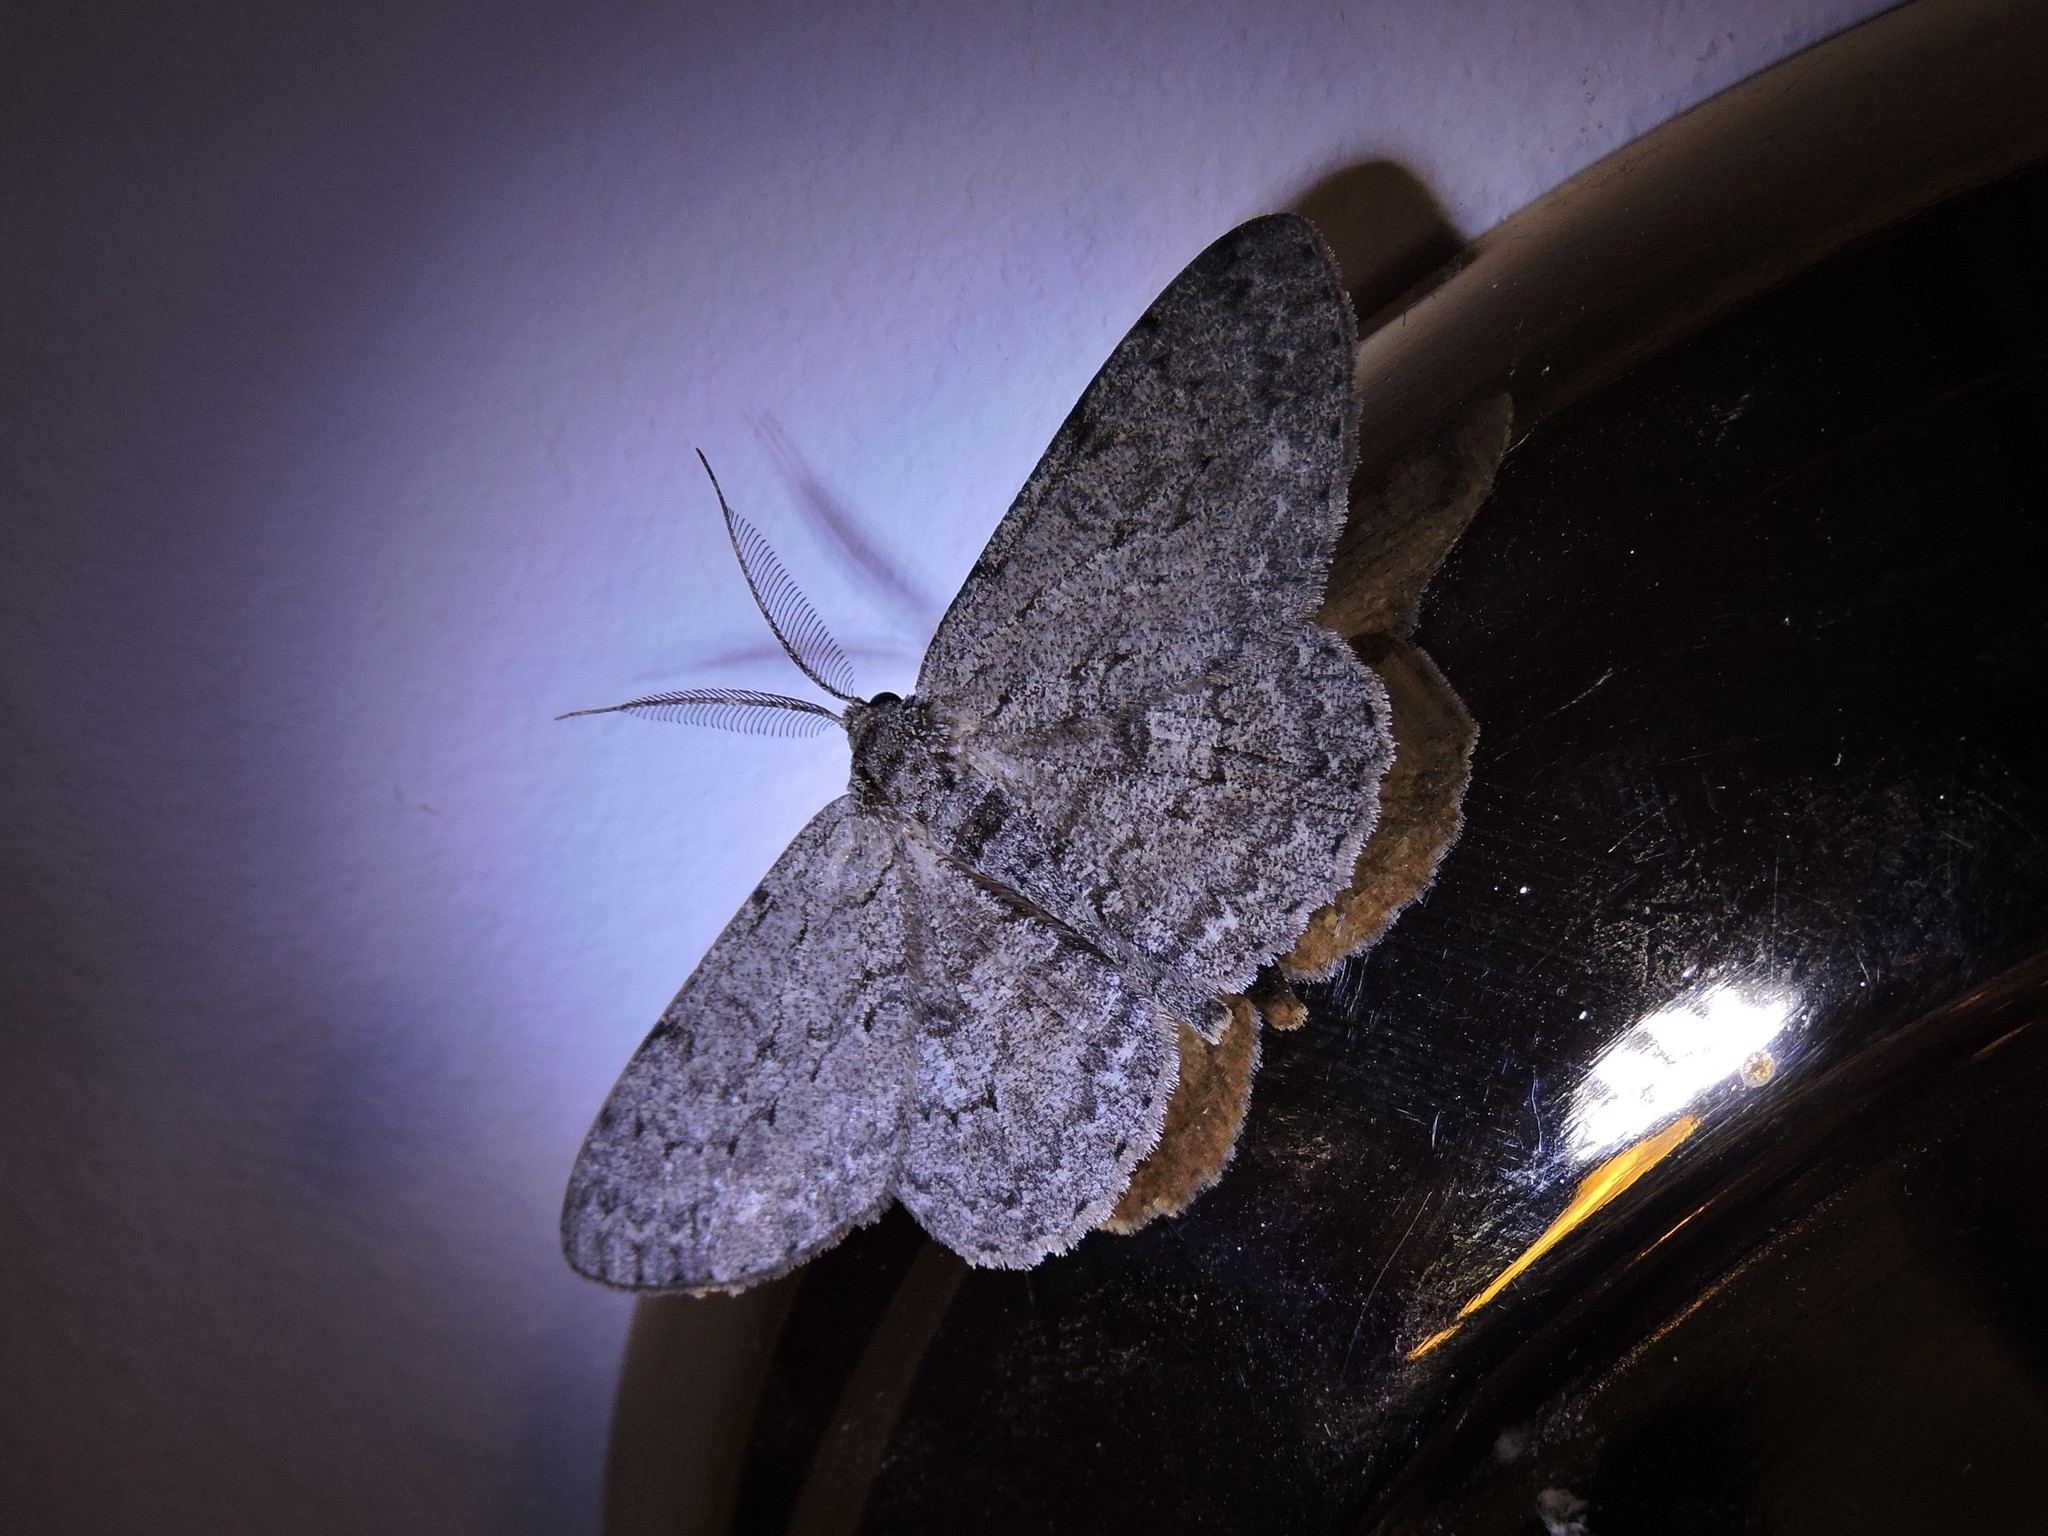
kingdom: Animalia
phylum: Arthropoda
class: Insecta
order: Lepidoptera
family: Geometridae
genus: Hypomecis
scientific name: Hypomecis punctinalis
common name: Pale oak beauty
